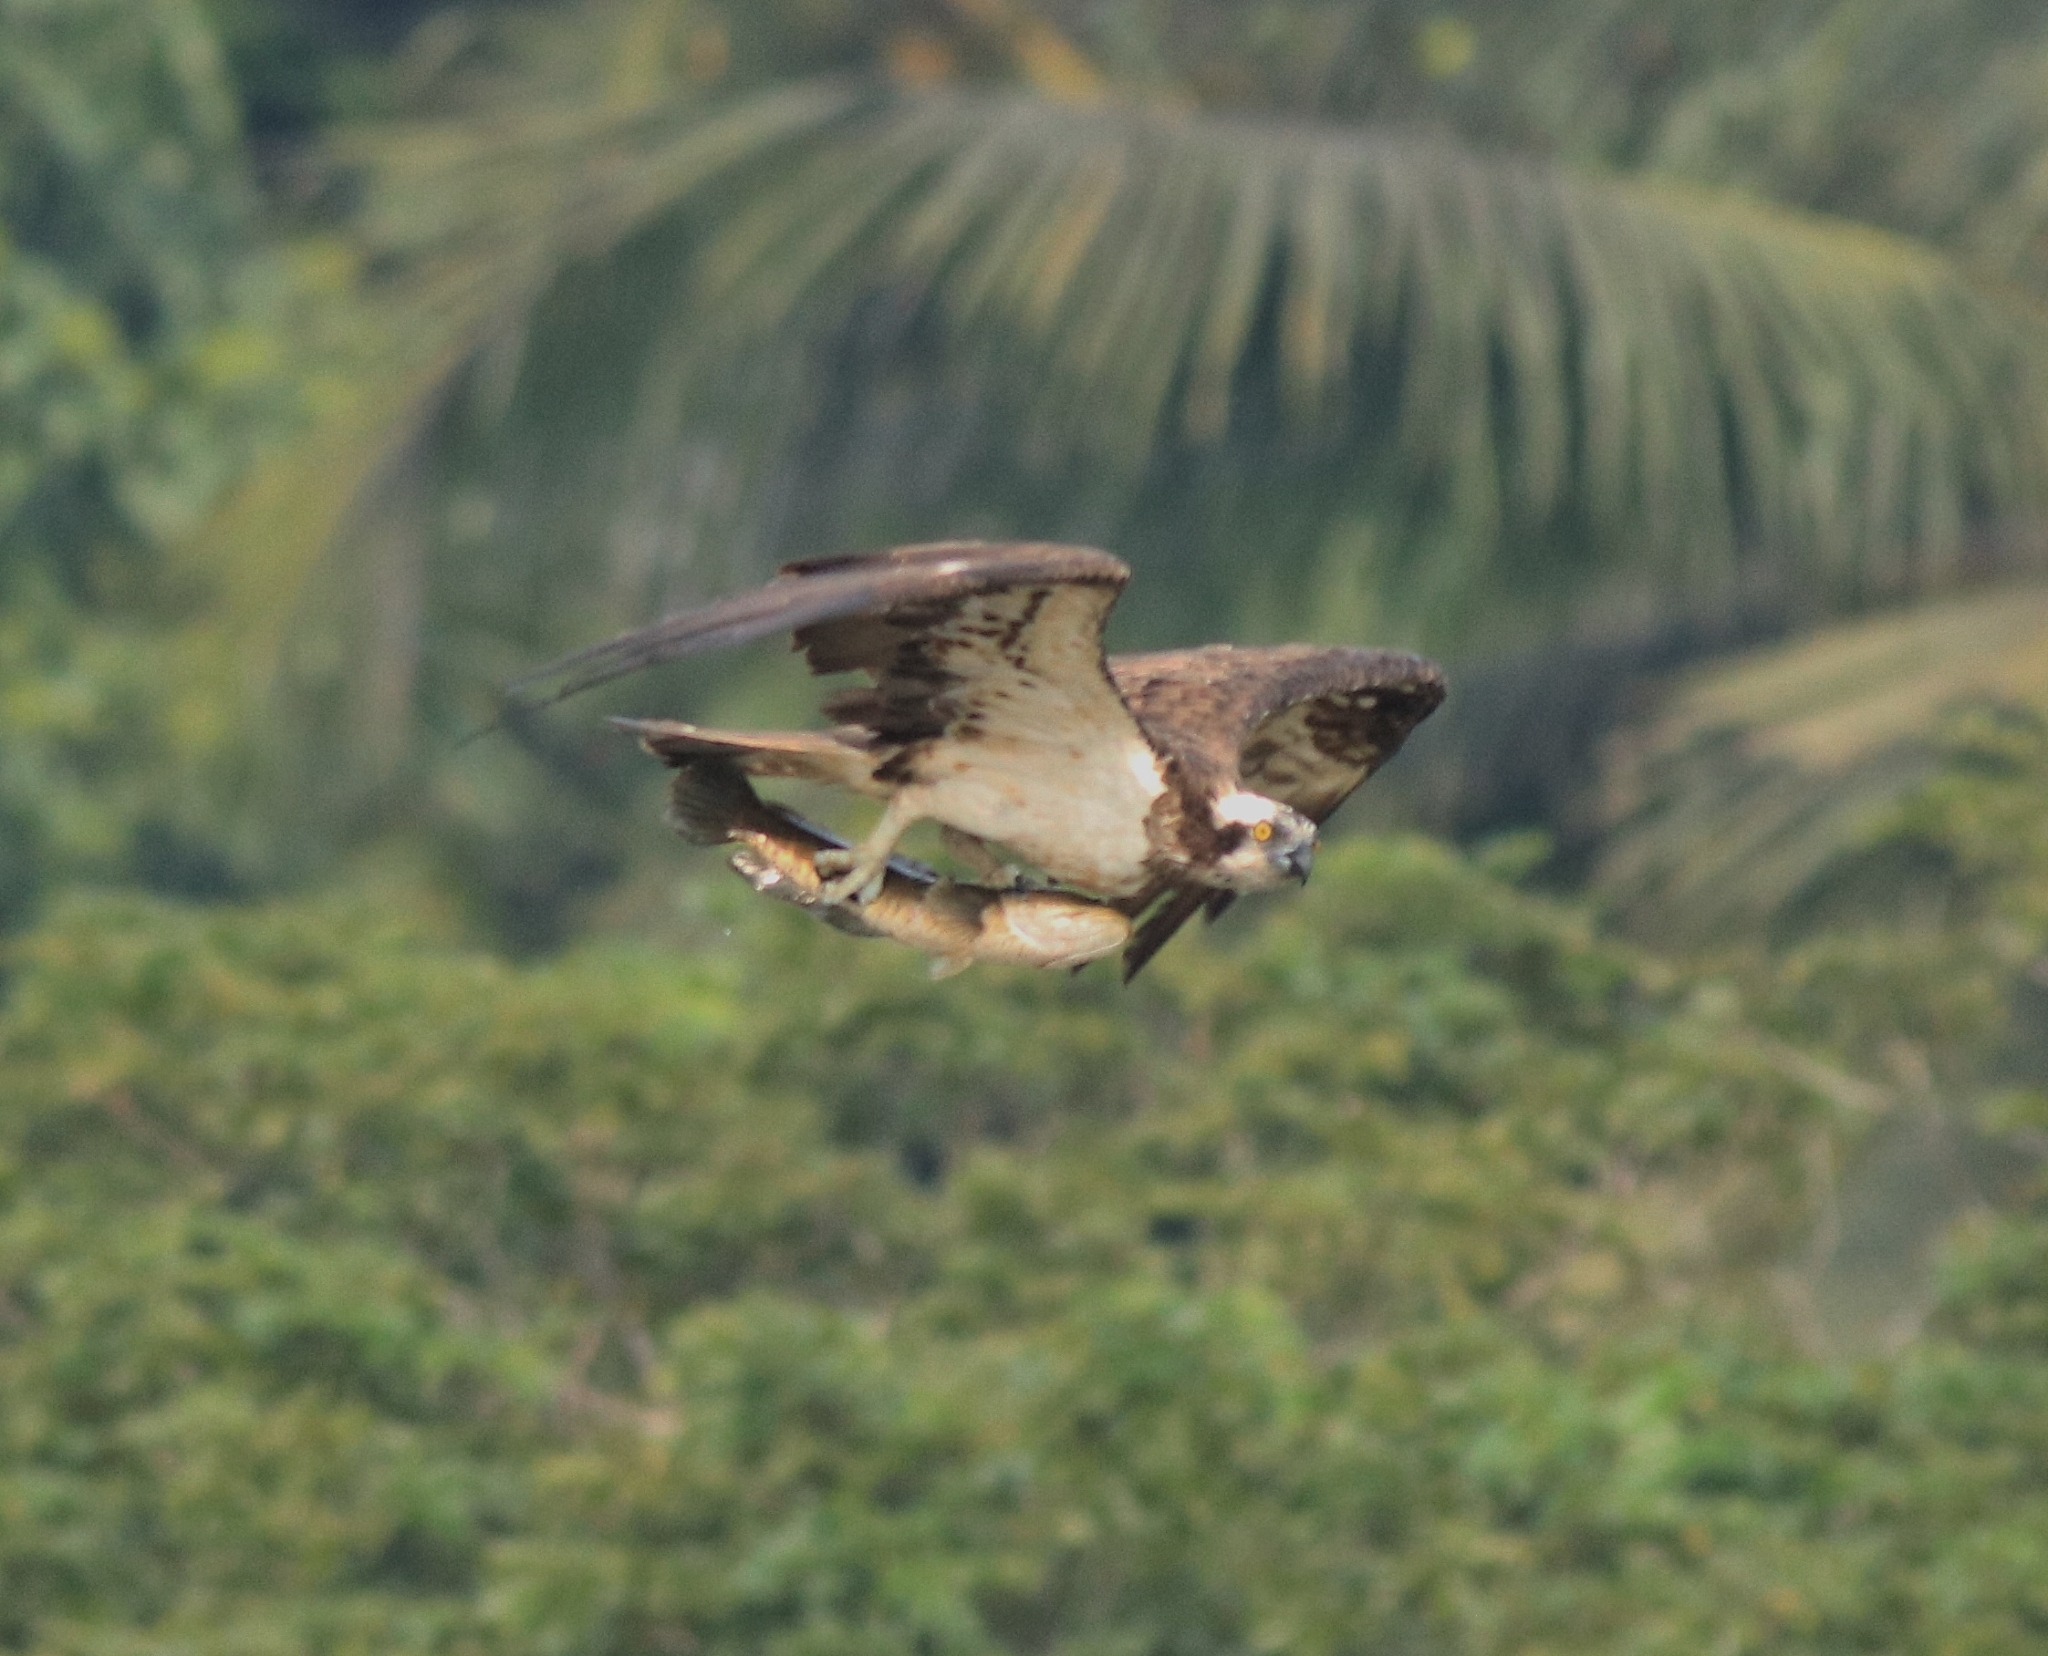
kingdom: Animalia
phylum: Chordata
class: Aves
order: Accipitriformes
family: Pandionidae
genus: Pandion
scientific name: Pandion haliaetus
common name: Osprey
